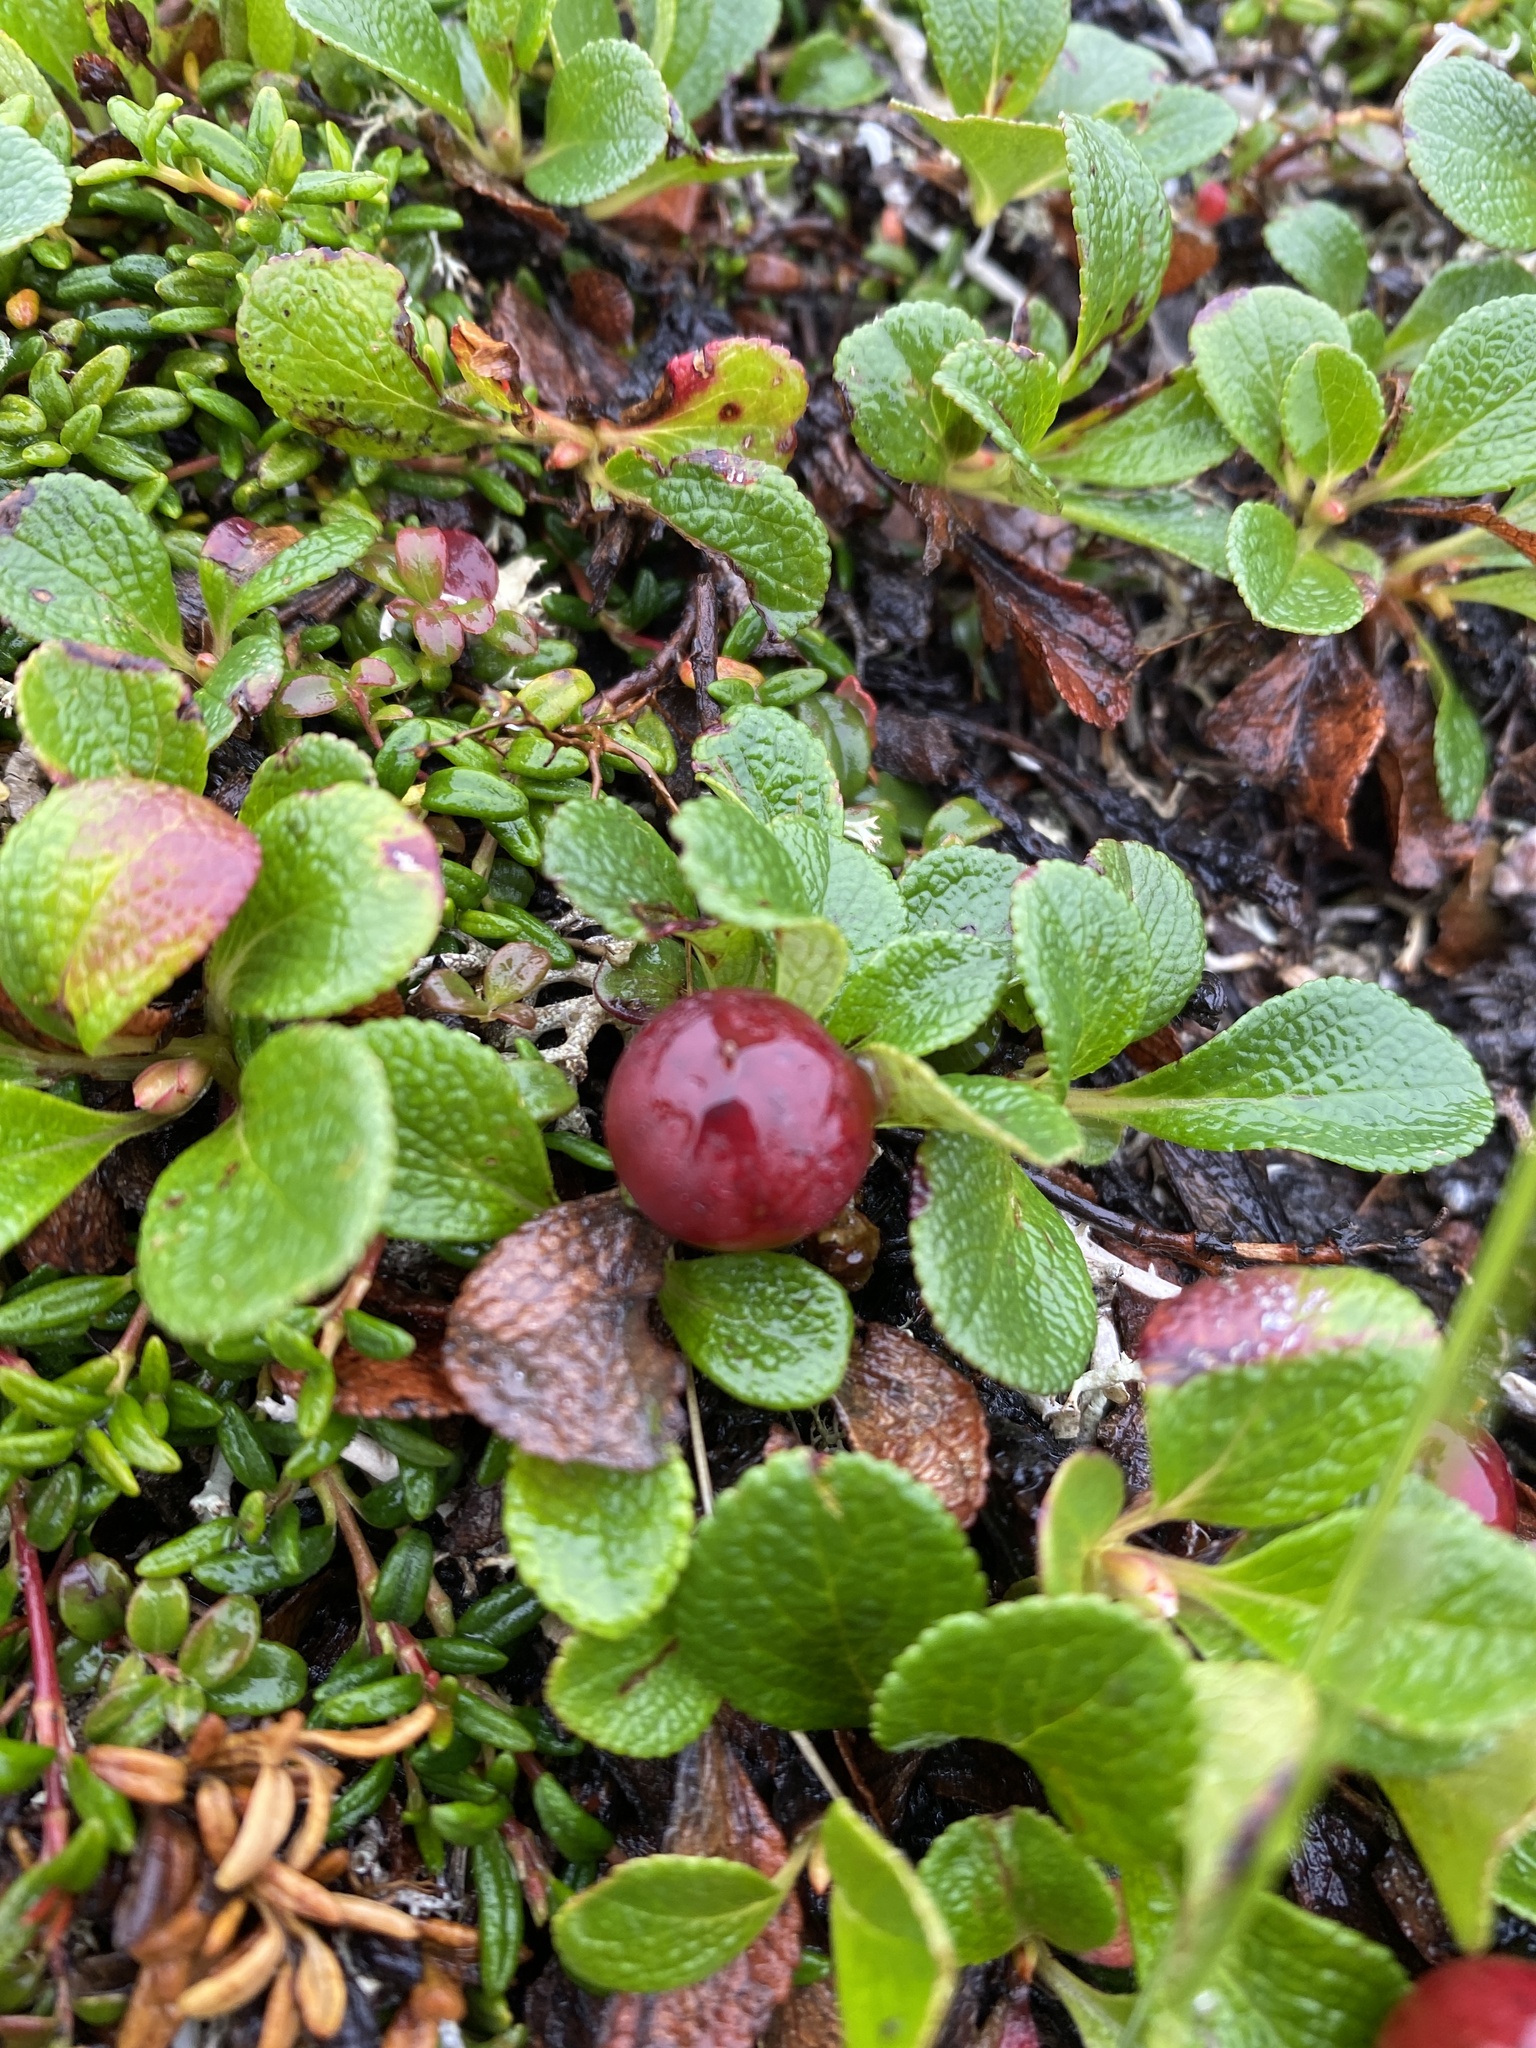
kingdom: Plantae
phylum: Tracheophyta
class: Magnoliopsida
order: Ericales
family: Ericaceae
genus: Arctostaphylos
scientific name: Arctostaphylos alpinus
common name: Alpine bearberry
